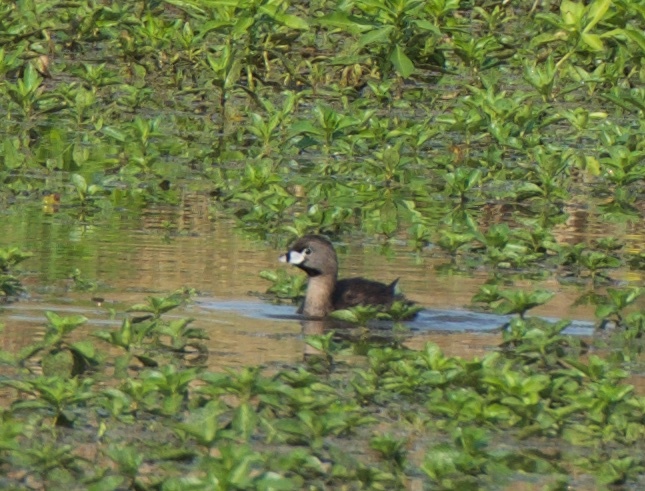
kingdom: Animalia
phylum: Chordata
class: Aves
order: Podicipediformes
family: Podicipedidae
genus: Podilymbus
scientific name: Podilymbus podiceps
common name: Pied-billed grebe
